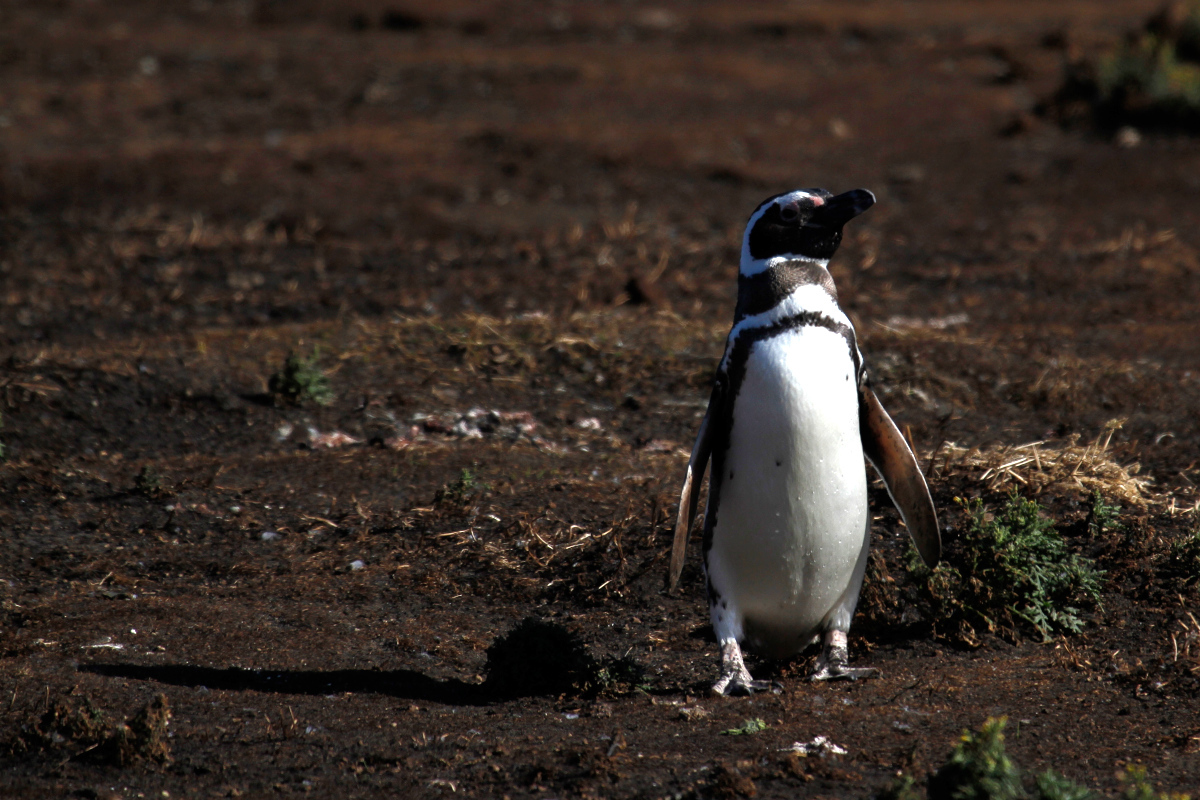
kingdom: Animalia
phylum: Chordata
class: Aves
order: Sphenisciformes
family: Spheniscidae
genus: Spheniscus
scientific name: Spheniscus magellanicus
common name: Magellanic penguin
